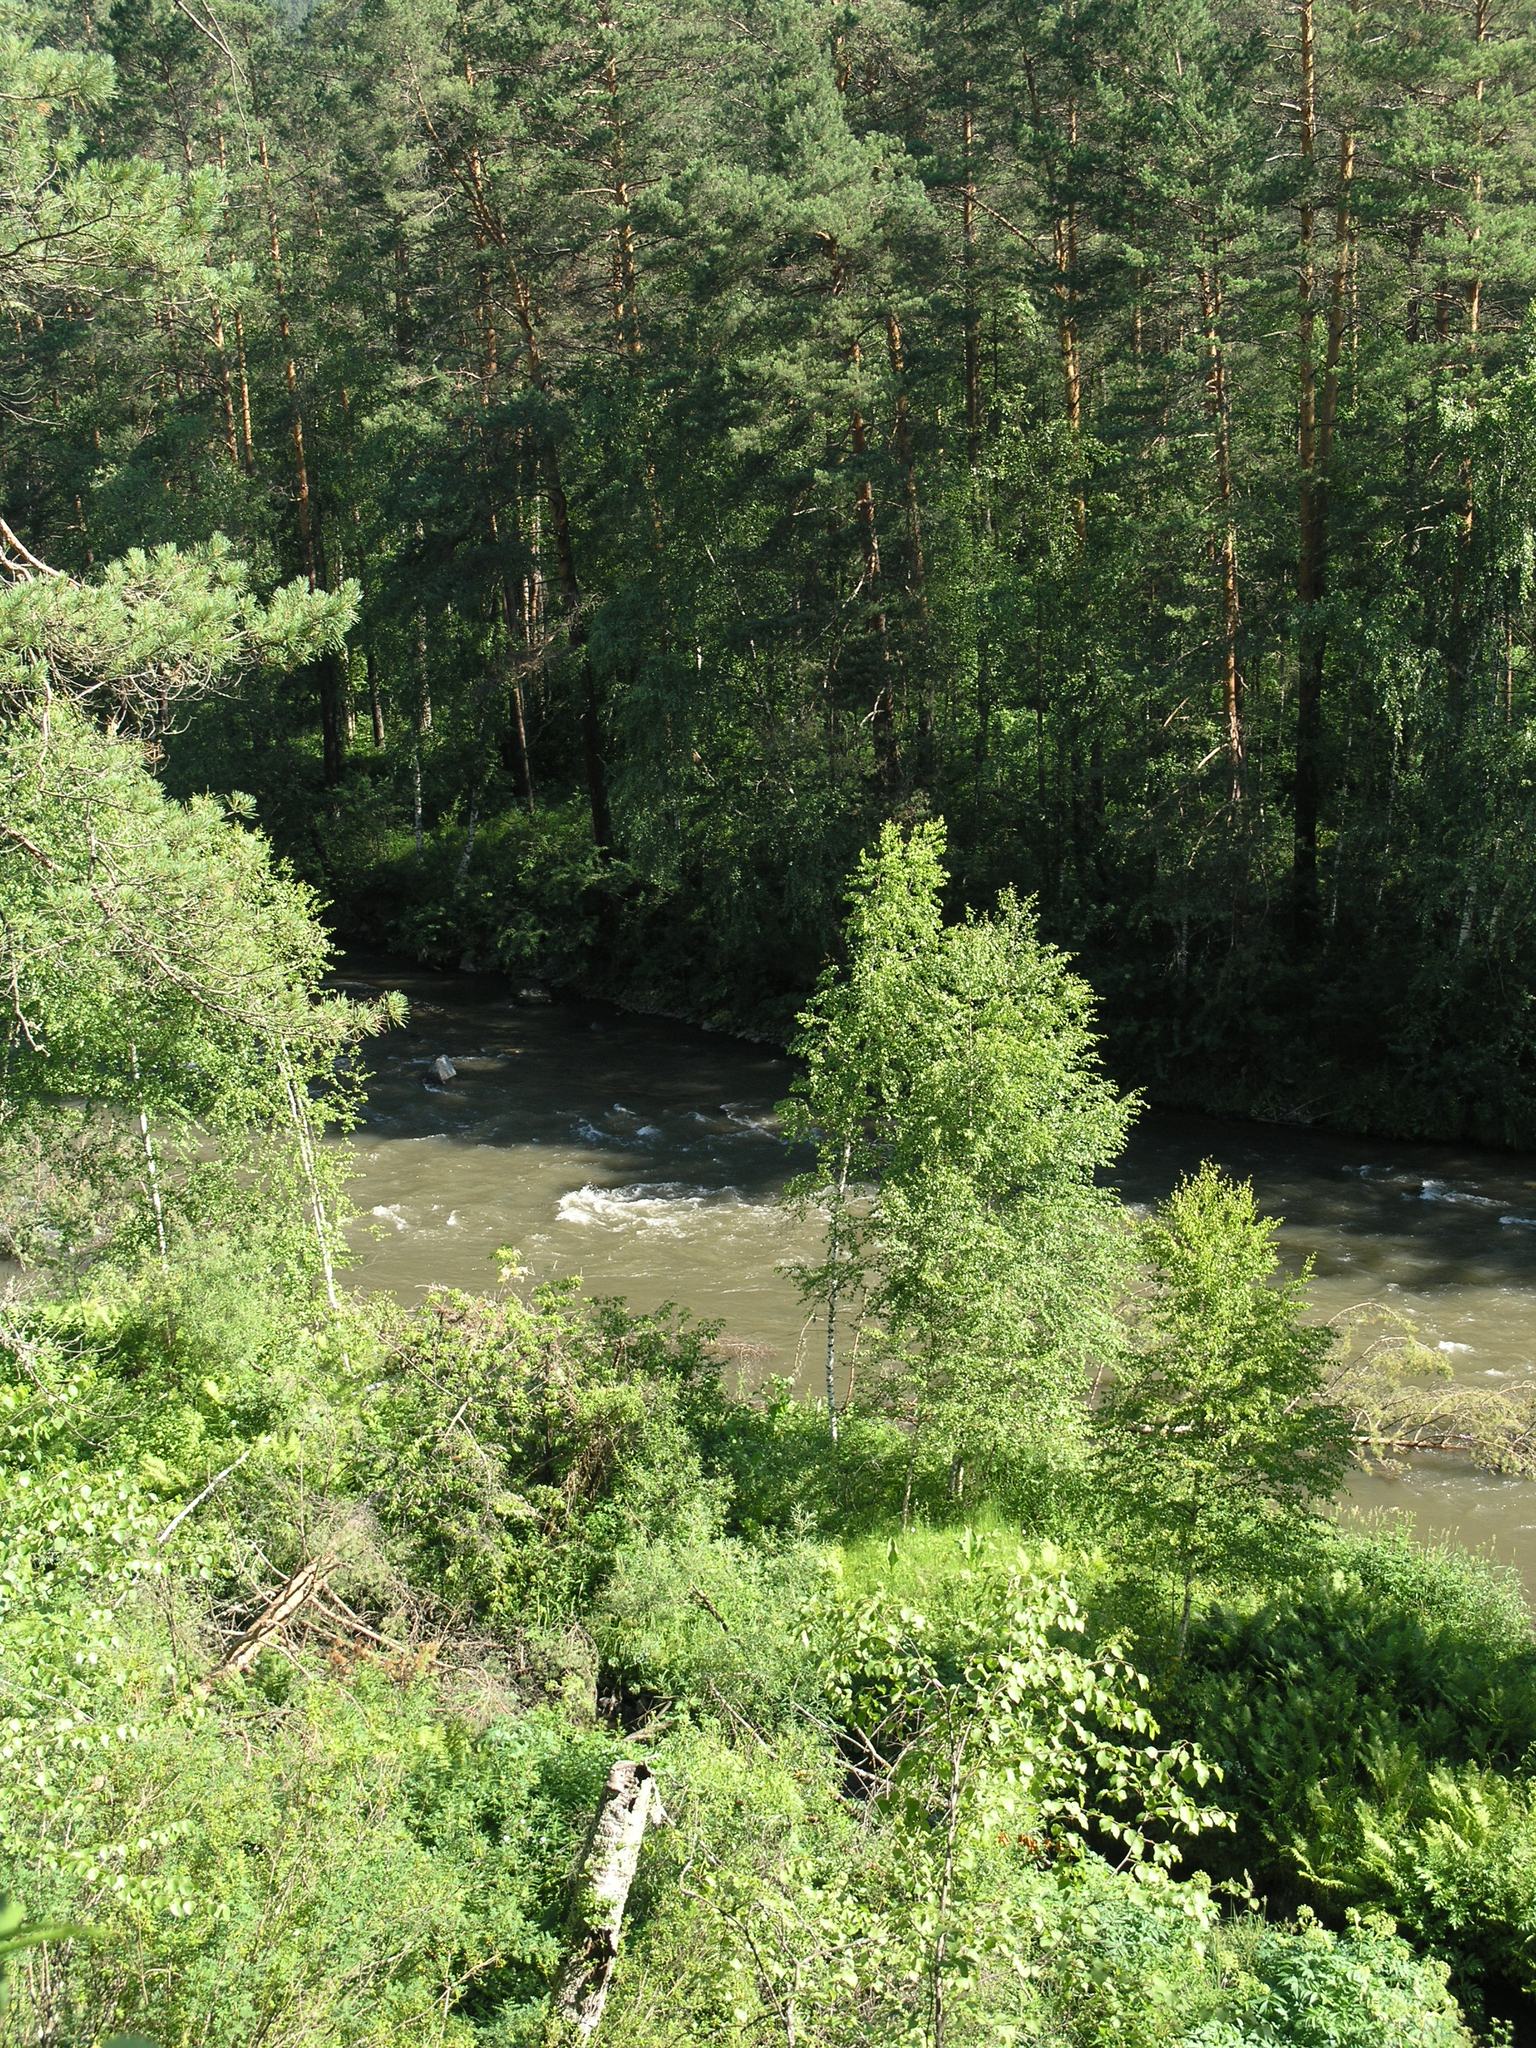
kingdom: Plantae
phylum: Tracheophyta
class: Pinopsida
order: Pinales
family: Pinaceae
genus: Pinus
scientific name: Pinus sylvestris
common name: Scots pine
